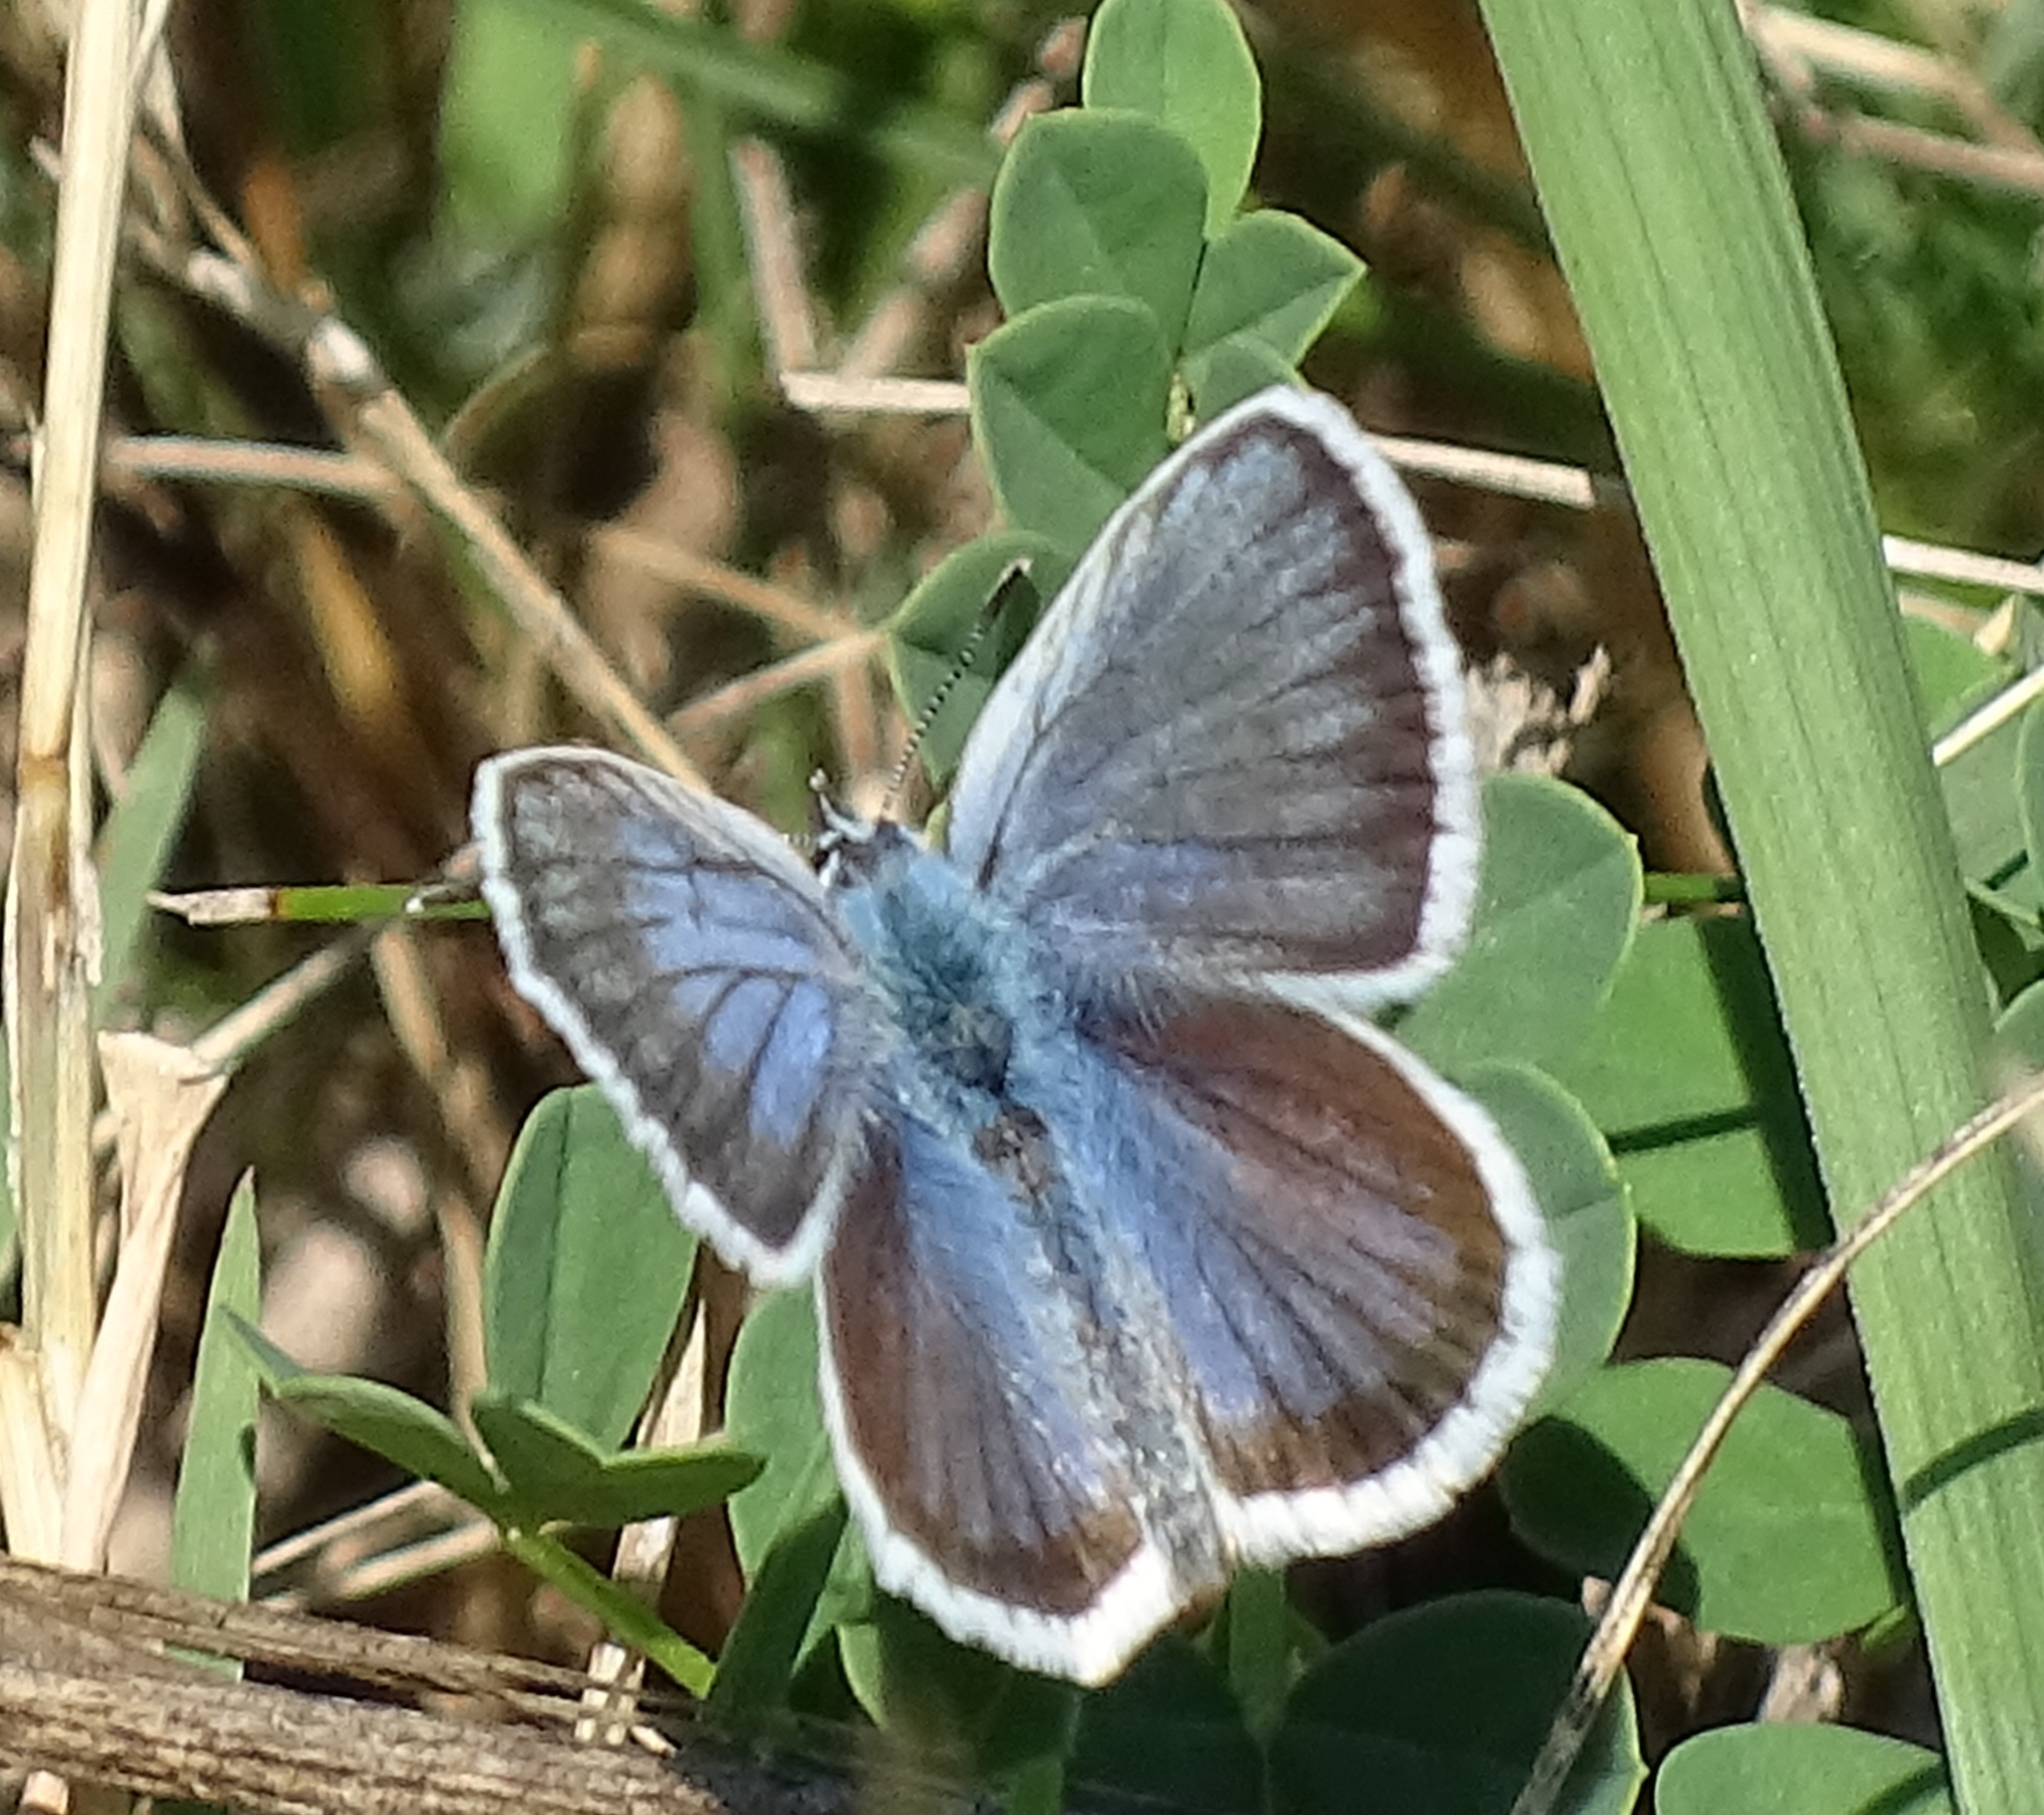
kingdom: Animalia
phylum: Arthropoda
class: Insecta
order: Lepidoptera
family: Lycaenidae
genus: Plebejus
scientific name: Plebejus argus
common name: Silver-studded blue
